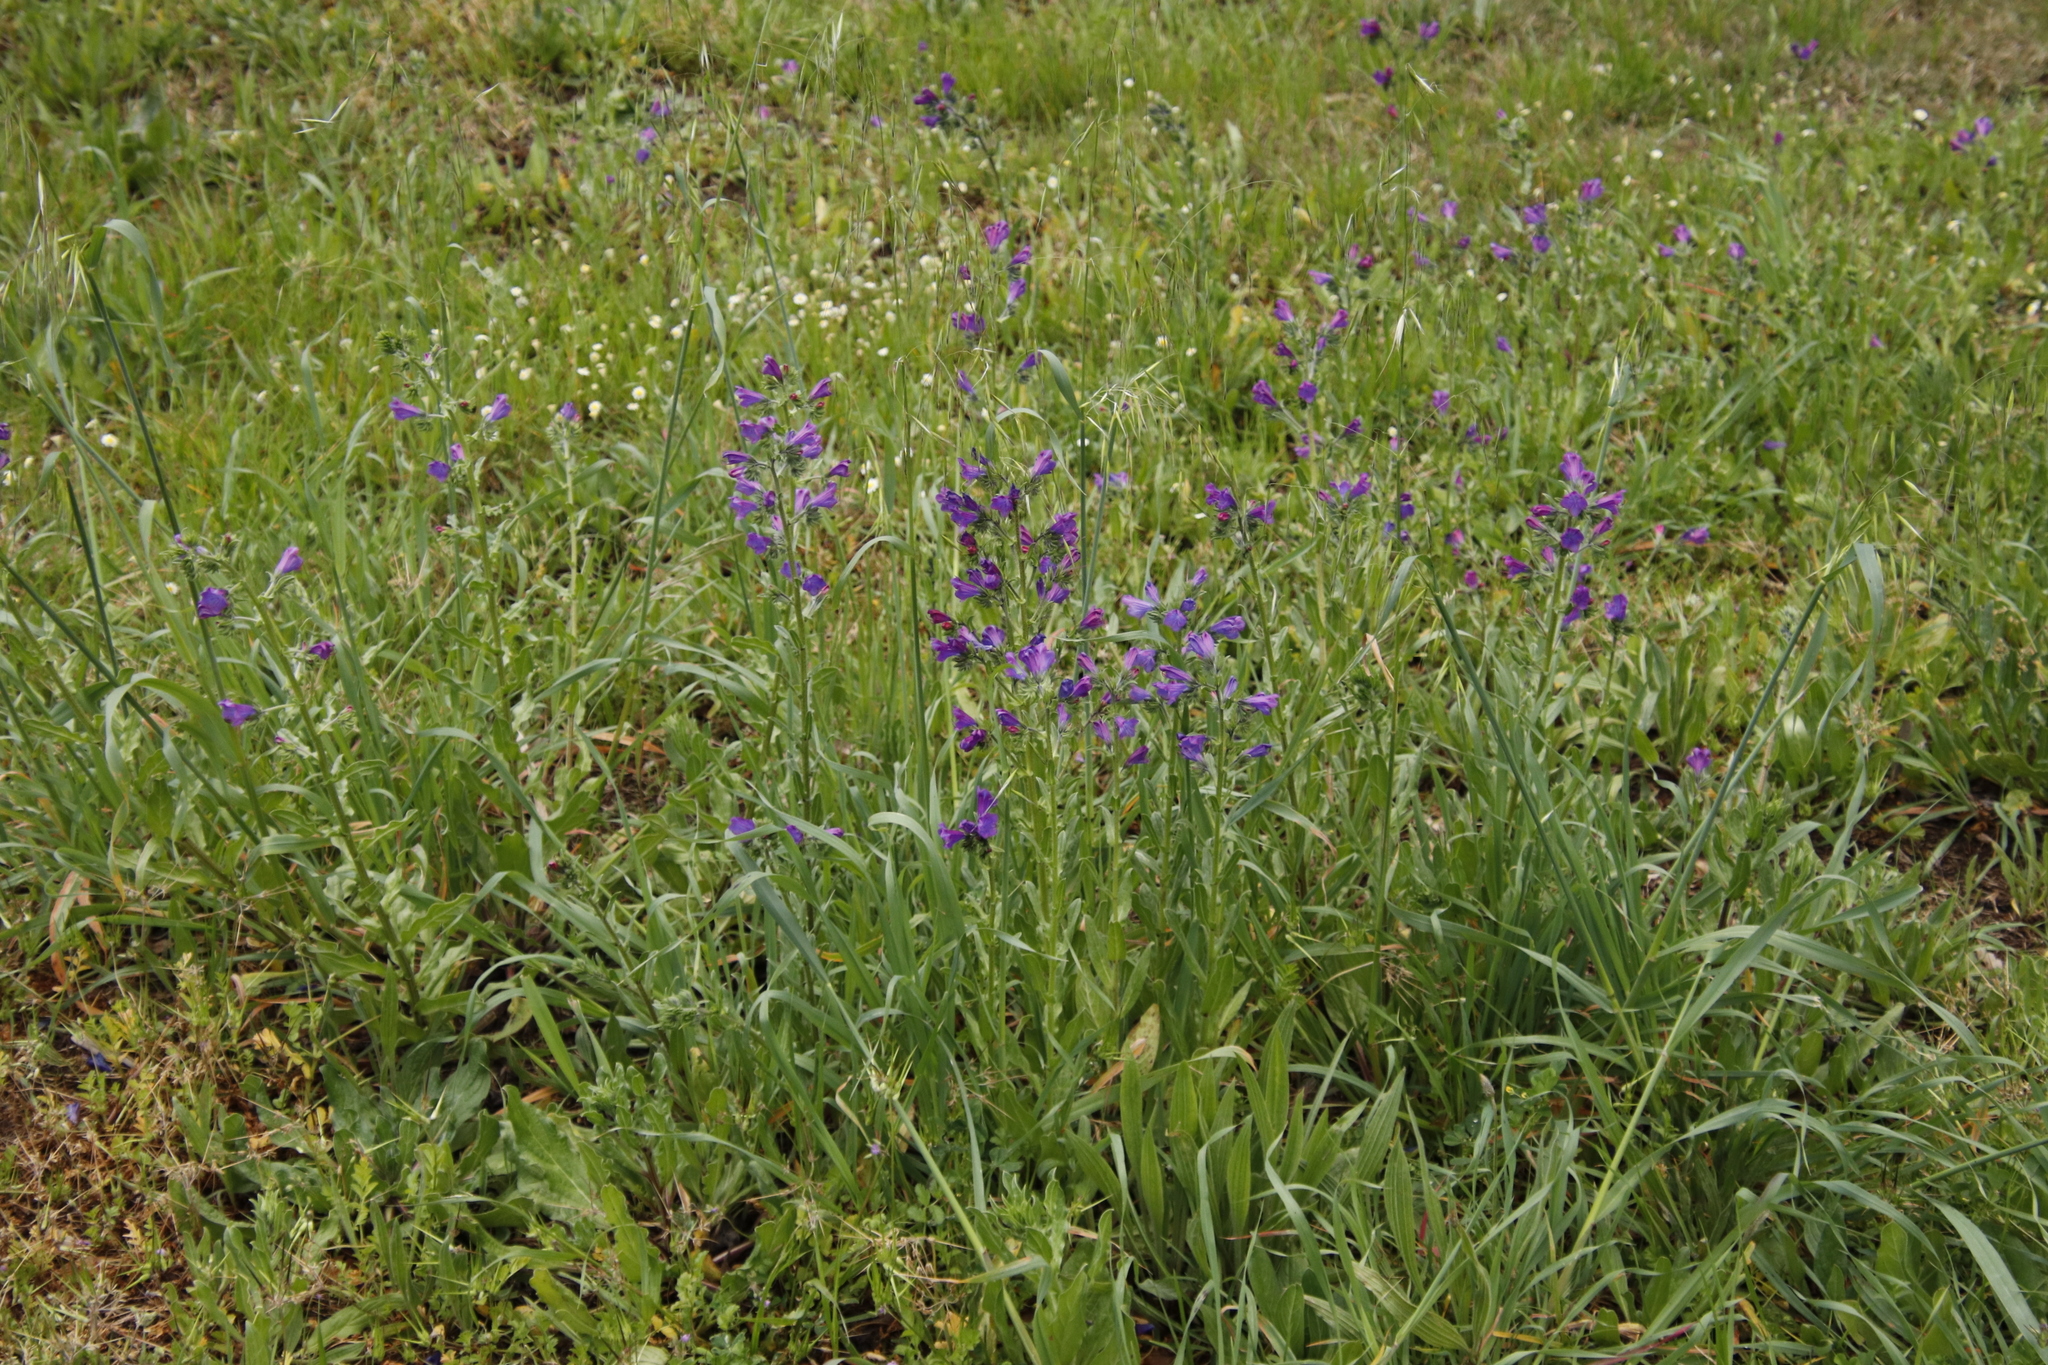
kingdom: Plantae
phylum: Tracheophyta
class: Magnoliopsida
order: Boraginales
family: Boraginaceae
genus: Echium
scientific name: Echium plantagineum
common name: Purple viper's-bugloss
